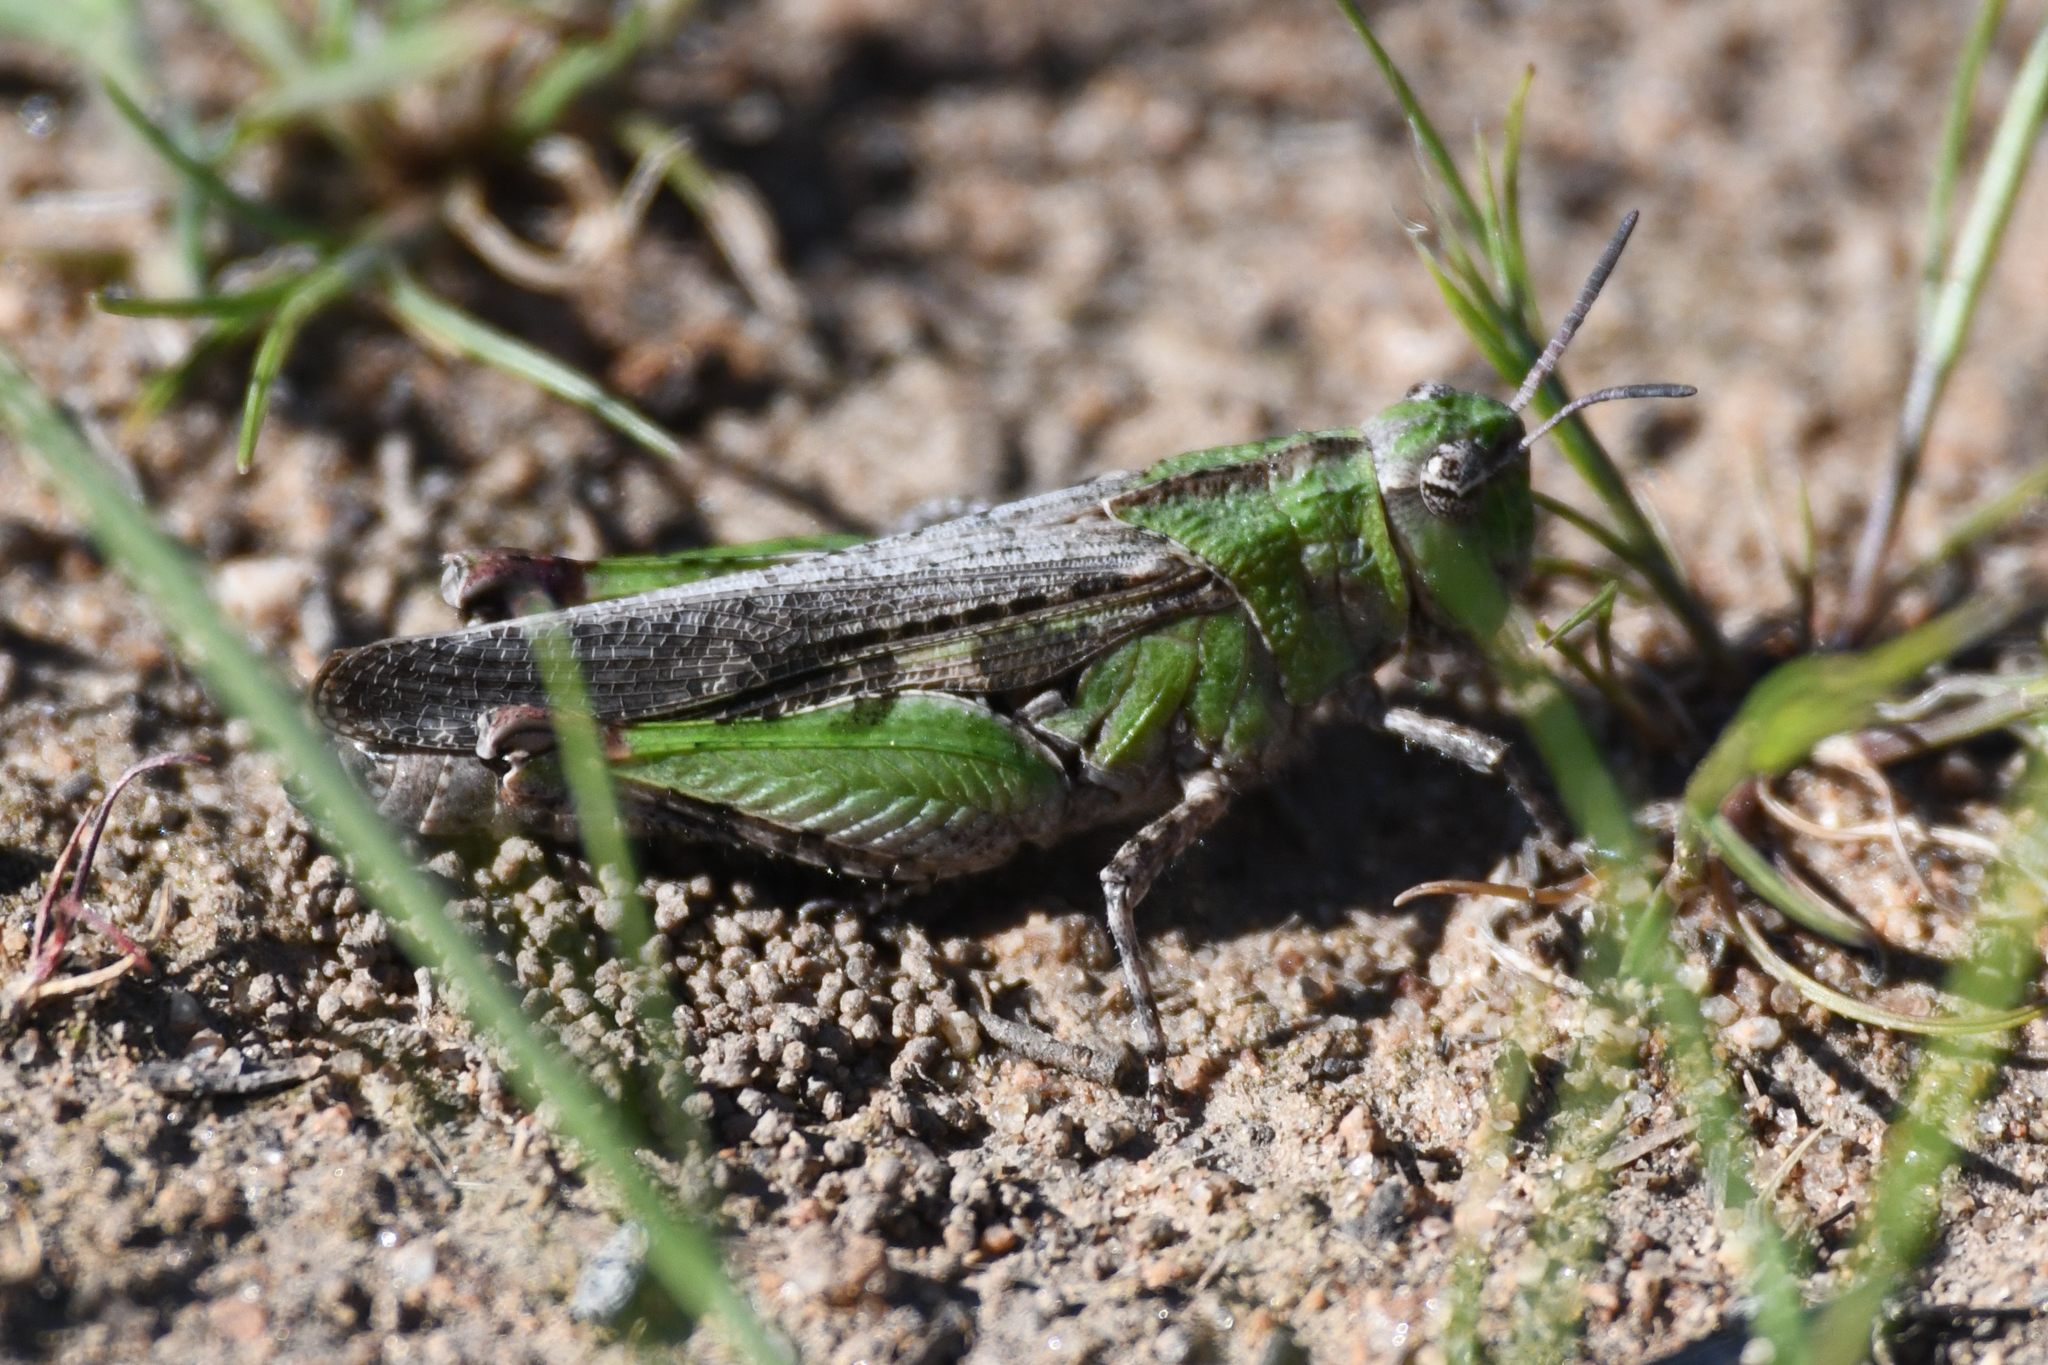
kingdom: Animalia
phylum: Arthropoda
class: Insecta
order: Orthoptera
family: Acrididae
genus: Chimarocephala
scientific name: Chimarocephala pacifica
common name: Painted meadow grasshopper
